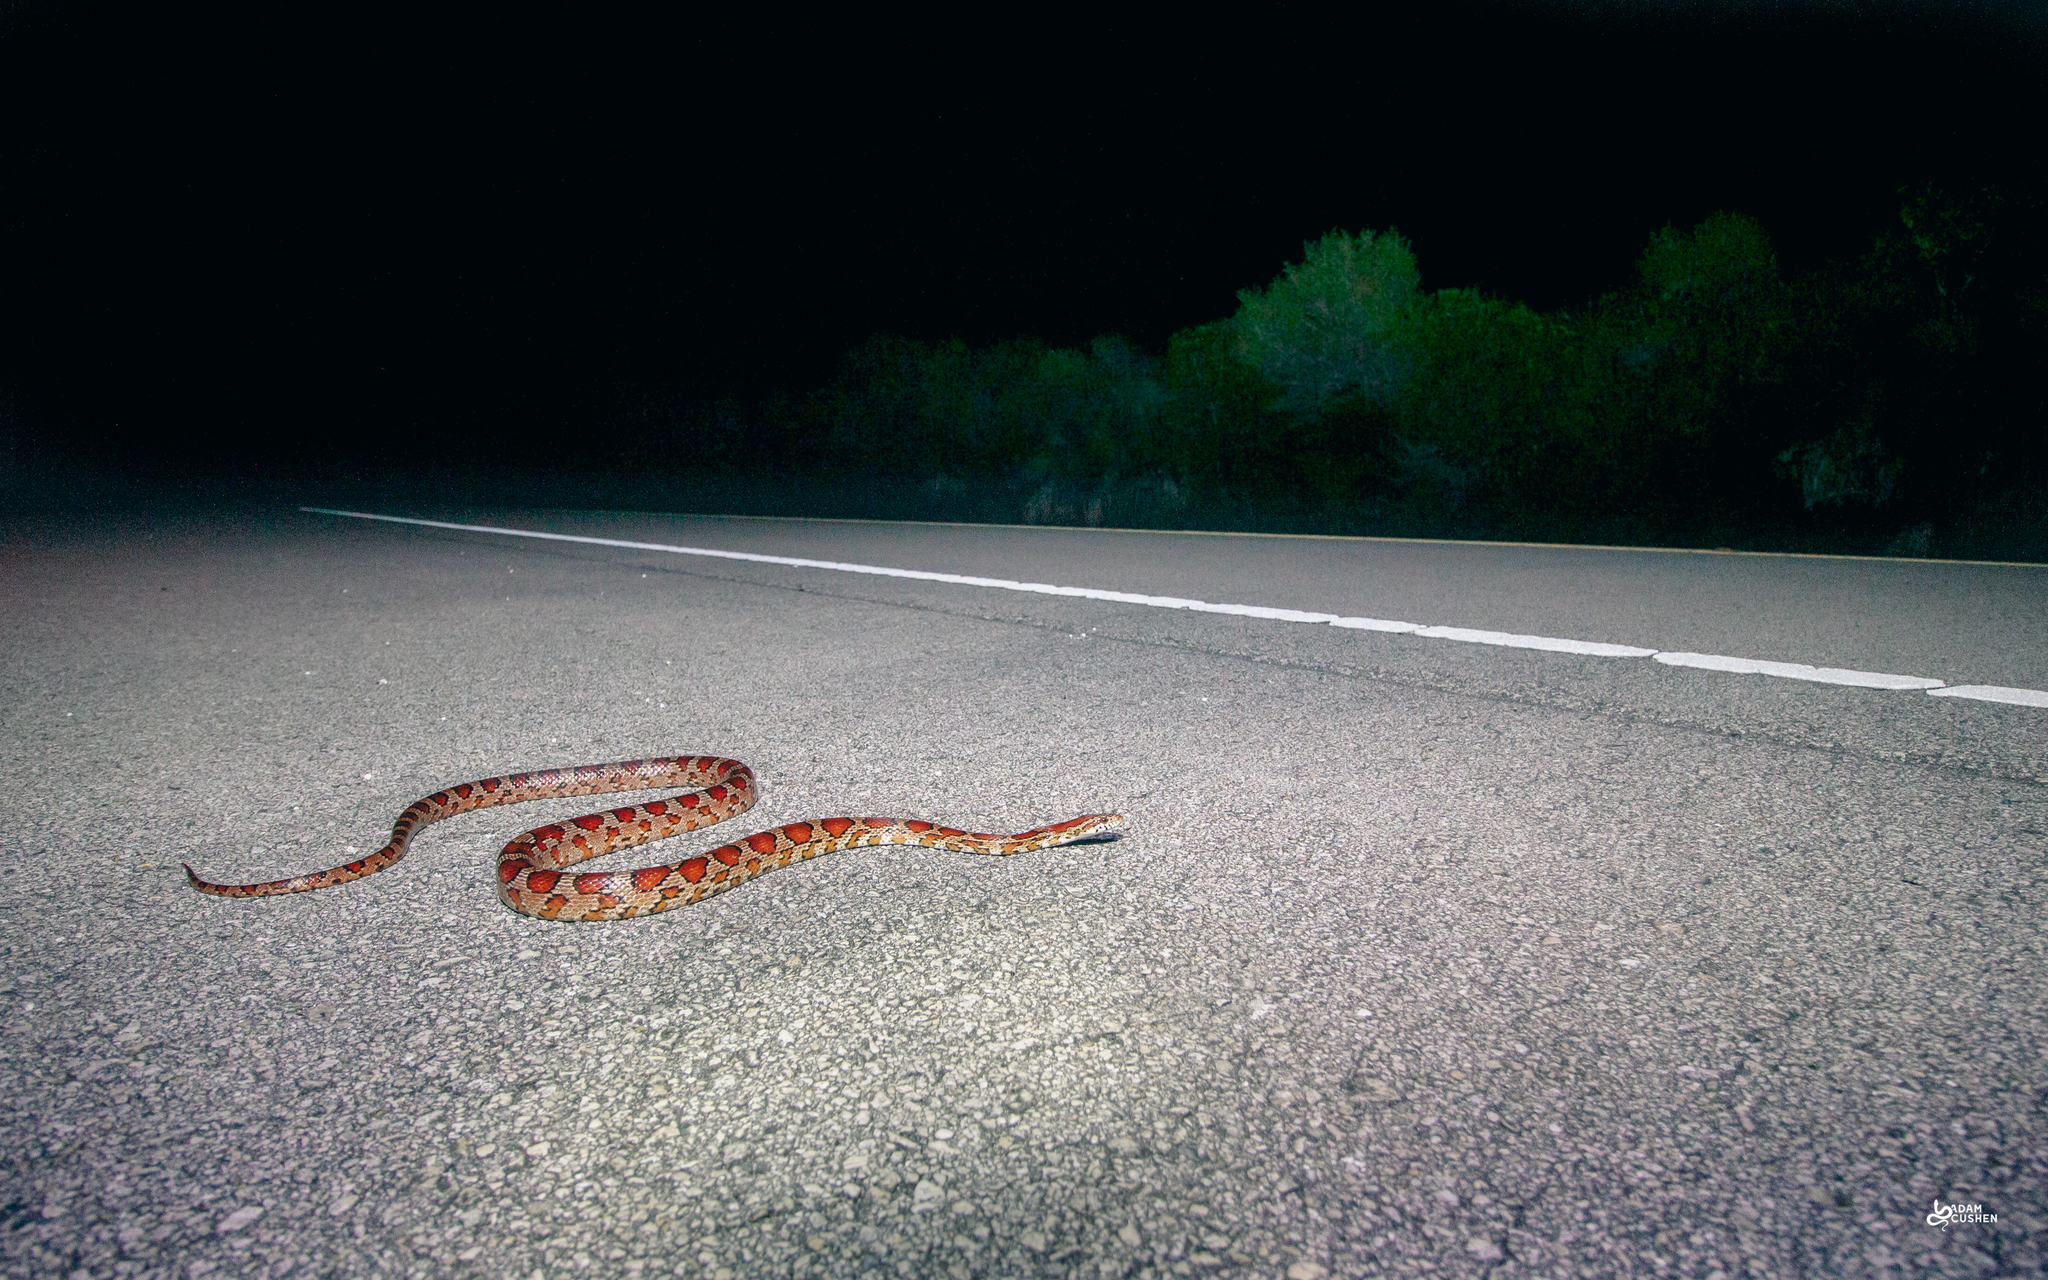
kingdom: Animalia
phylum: Chordata
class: Squamata
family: Colubridae
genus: Pantherophis
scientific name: Pantherophis guttatus
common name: Red cornsnake
